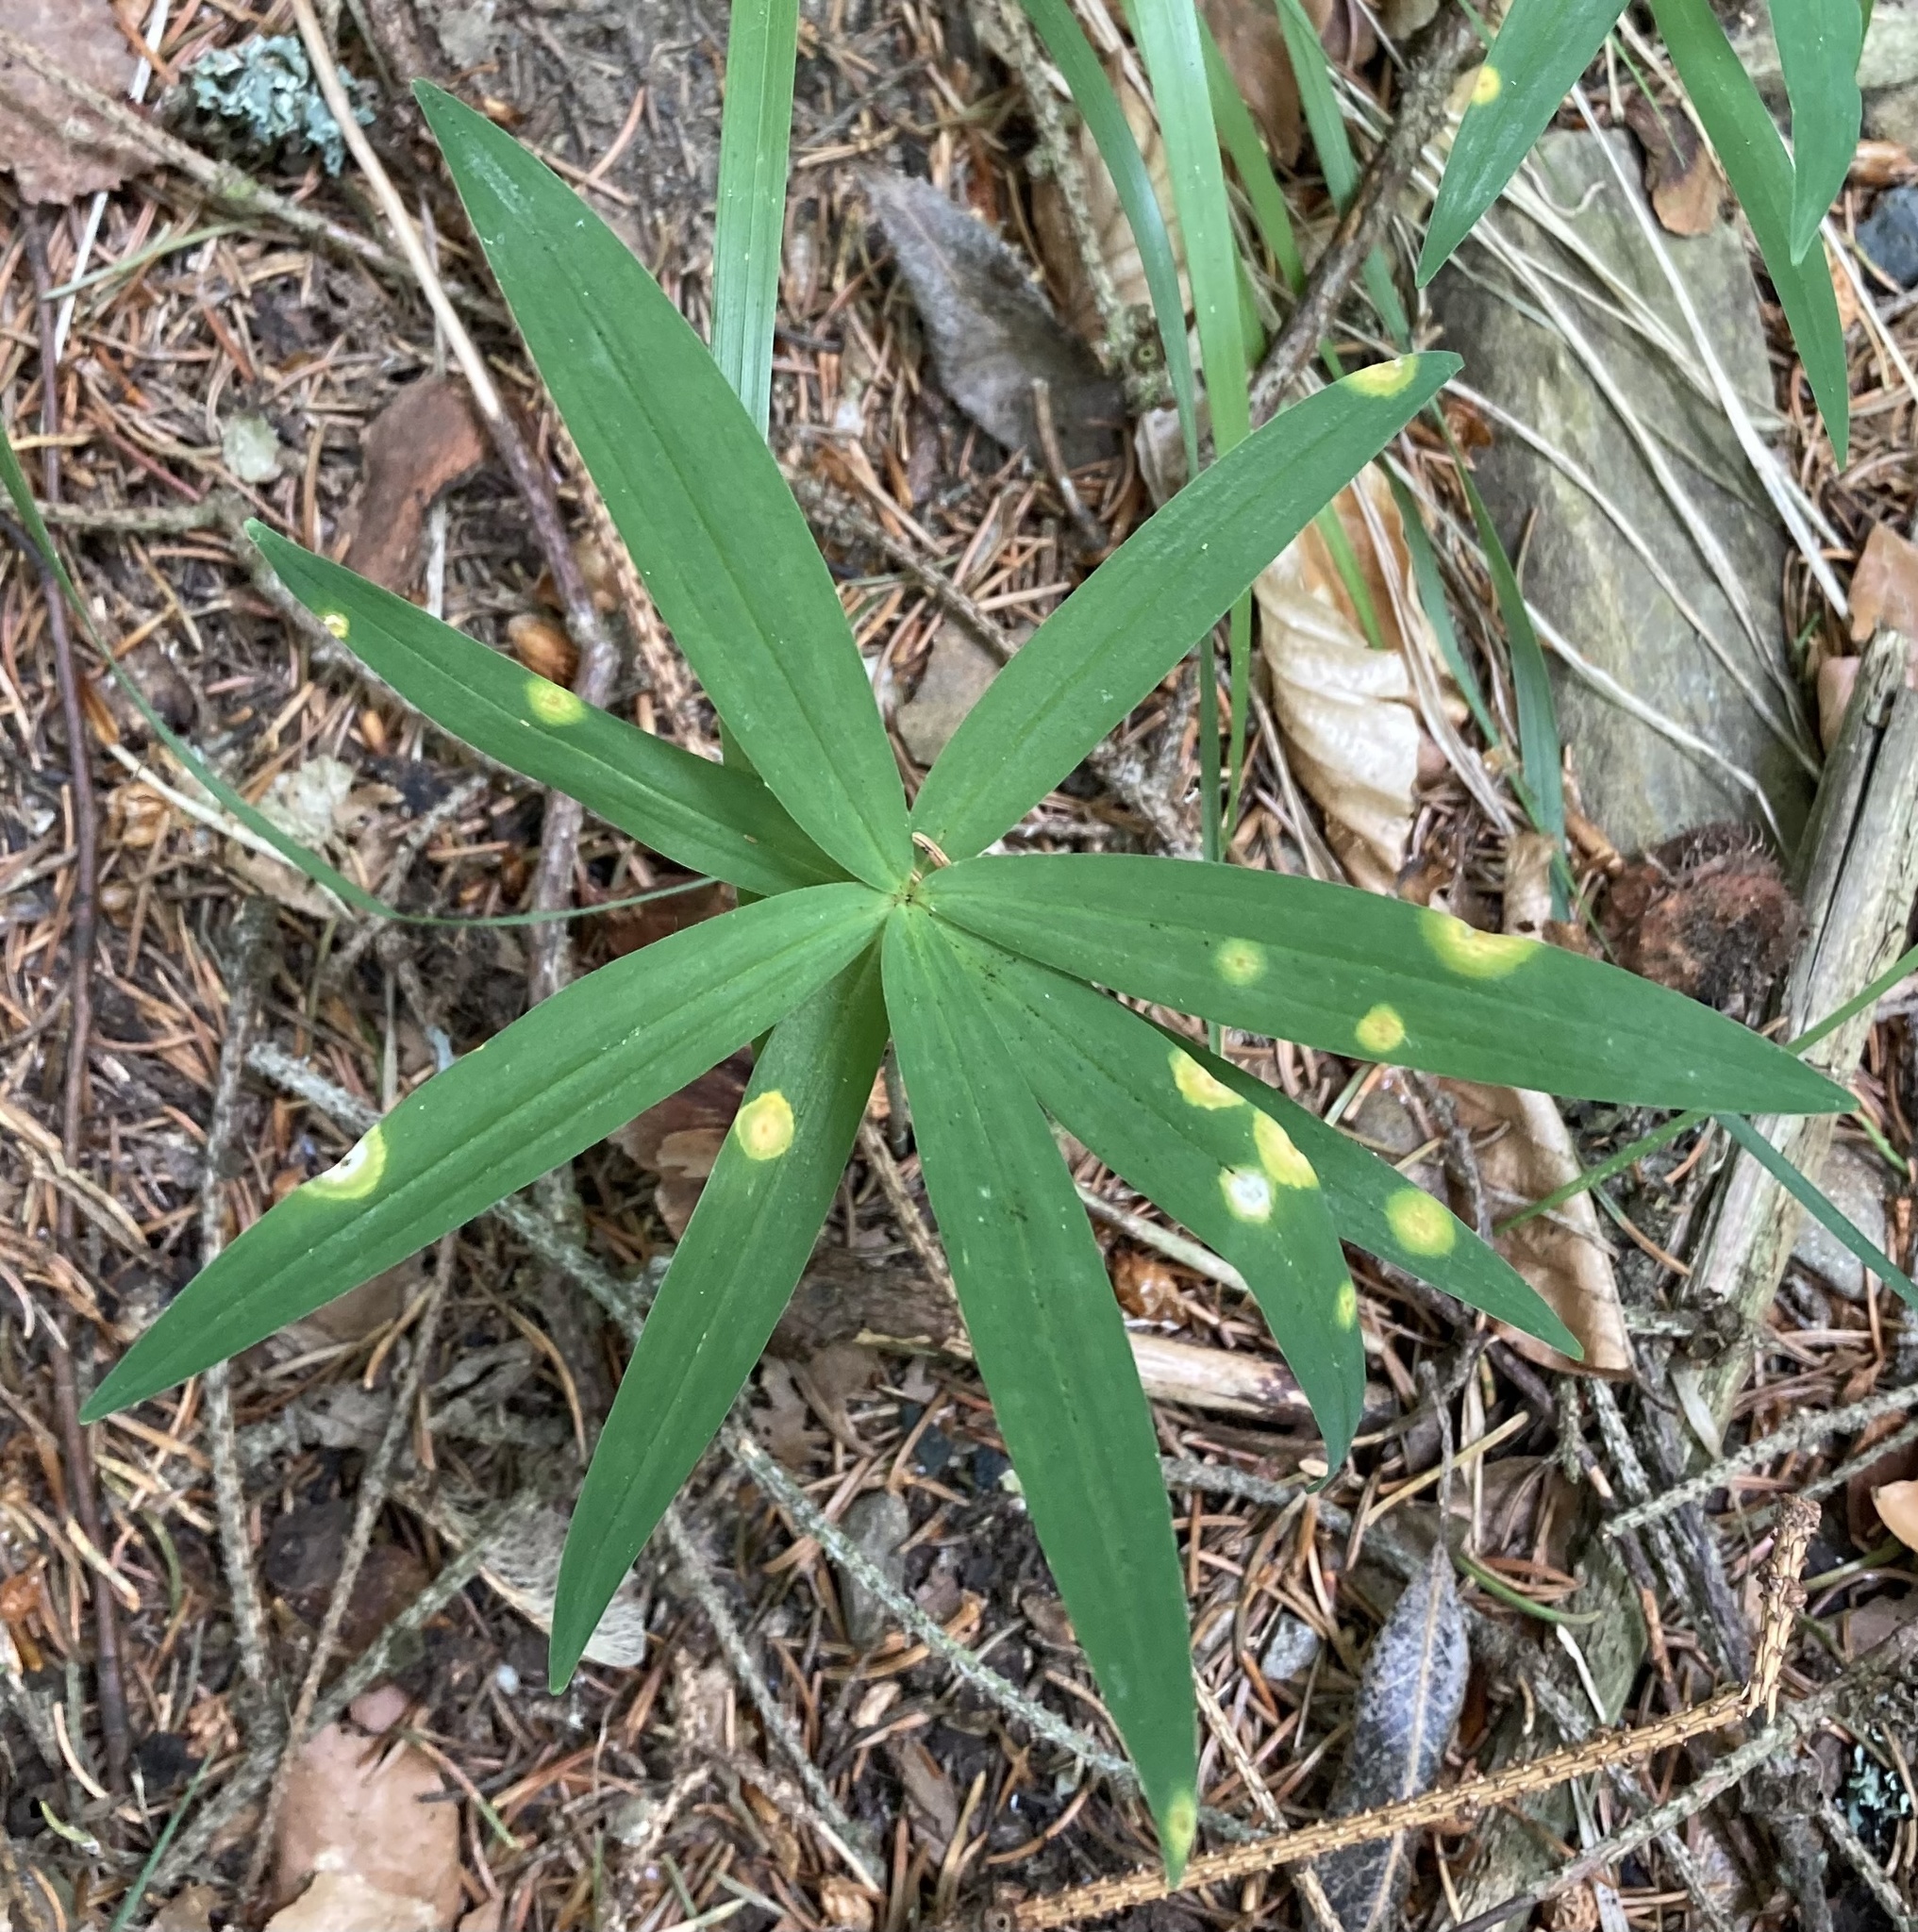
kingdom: Plantae
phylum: Tracheophyta
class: Liliopsida
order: Asparagales
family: Asparagaceae
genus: Polygonatum
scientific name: Polygonatum verticillatum
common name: Whorled solomon's-seal
